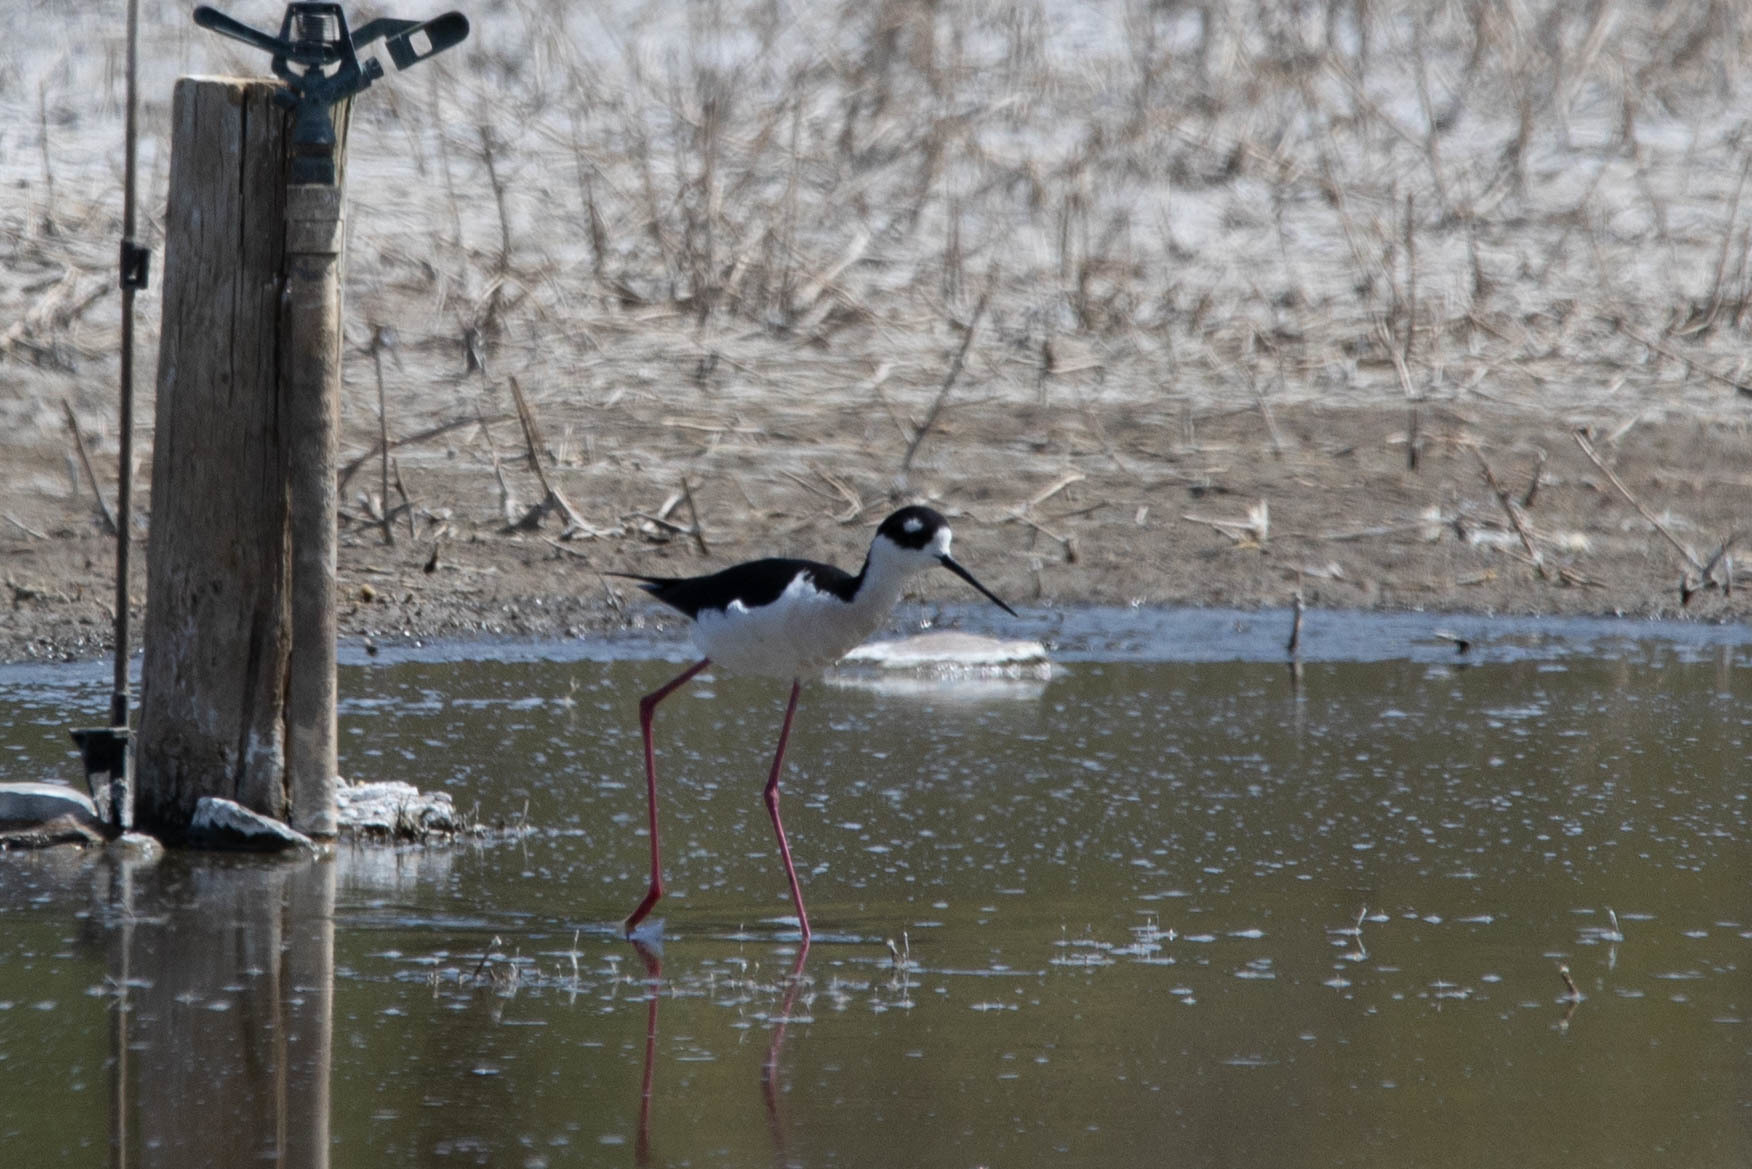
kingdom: Animalia
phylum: Chordata
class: Aves
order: Charadriiformes
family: Recurvirostridae
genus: Himantopus
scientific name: Himantopus mexicanus
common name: Black-necked stilt
